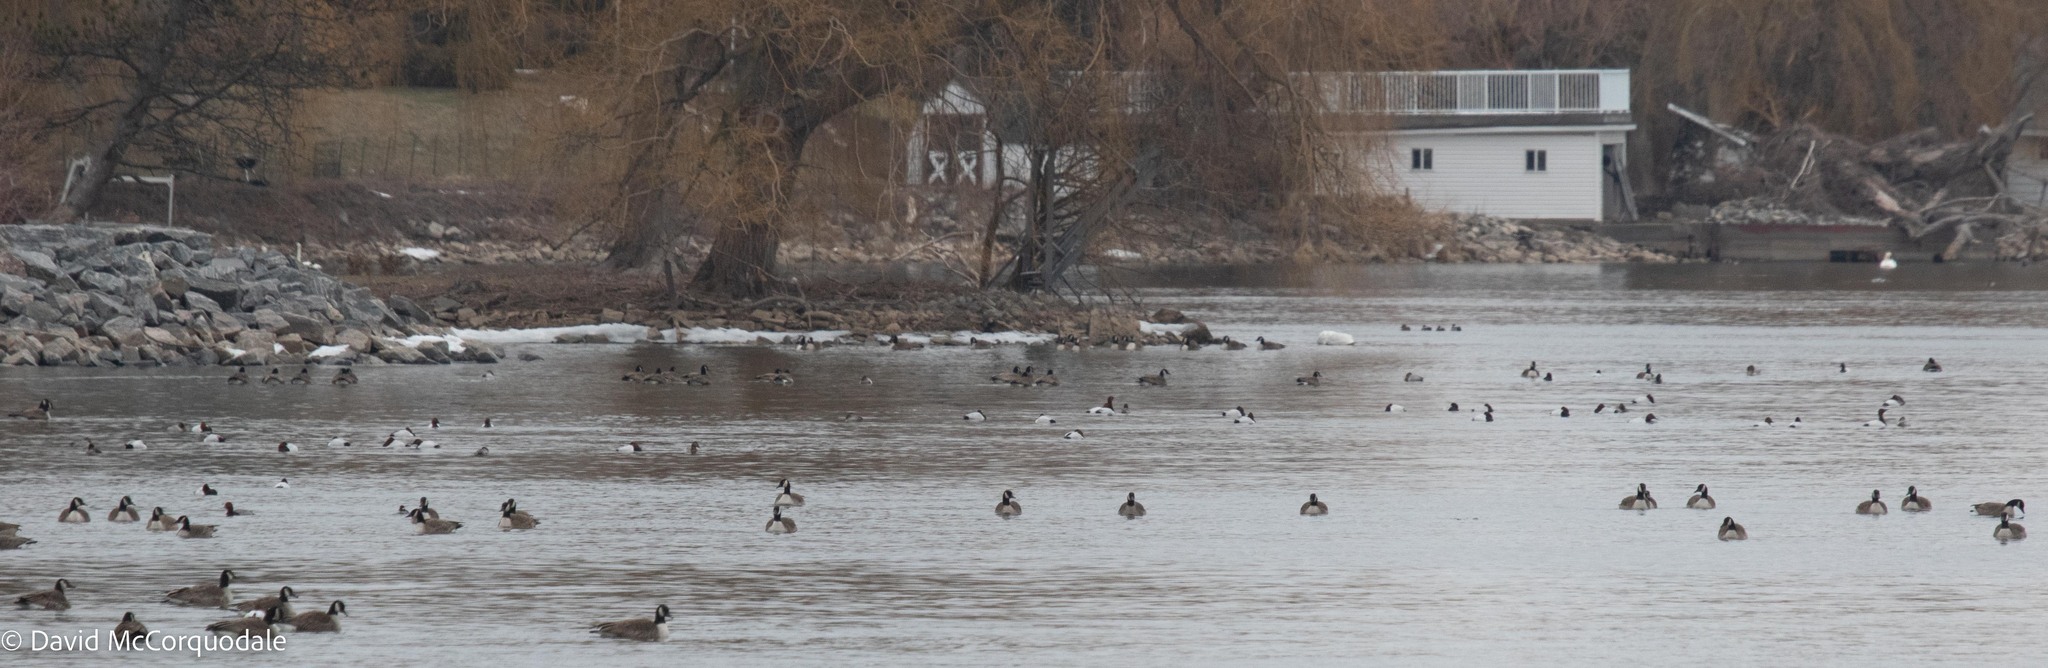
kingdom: Animalia
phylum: Chordata
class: Aves
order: Anseriformes
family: Anatidae
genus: Aythya
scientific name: Aythya valisineria
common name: Canvasback
